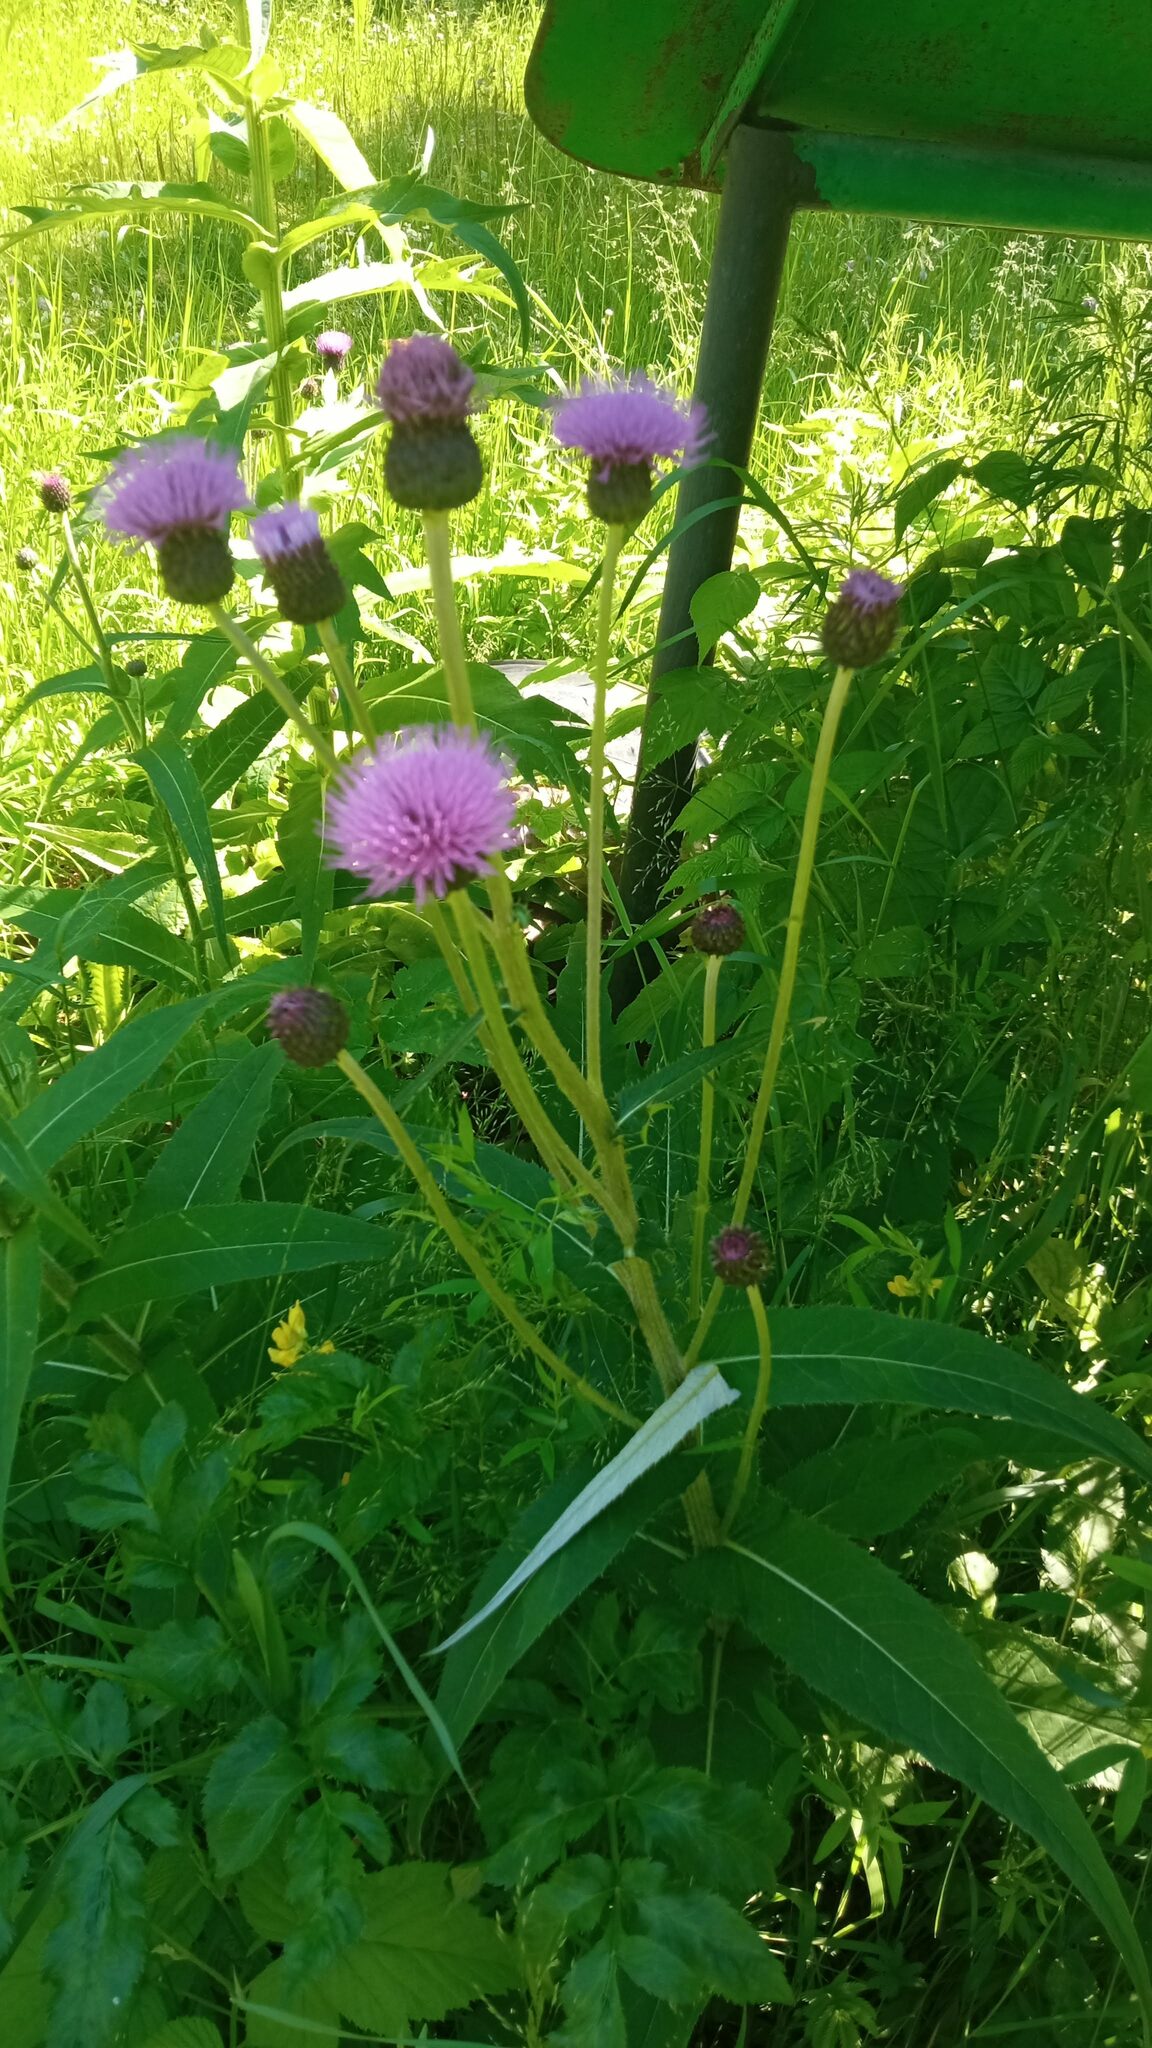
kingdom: Plantae
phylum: Tracheophyta
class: Magnoliopsida
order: Asterales
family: Asteraceae
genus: Cirsium
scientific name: Cirsium helenioides
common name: Melancholy thistle
